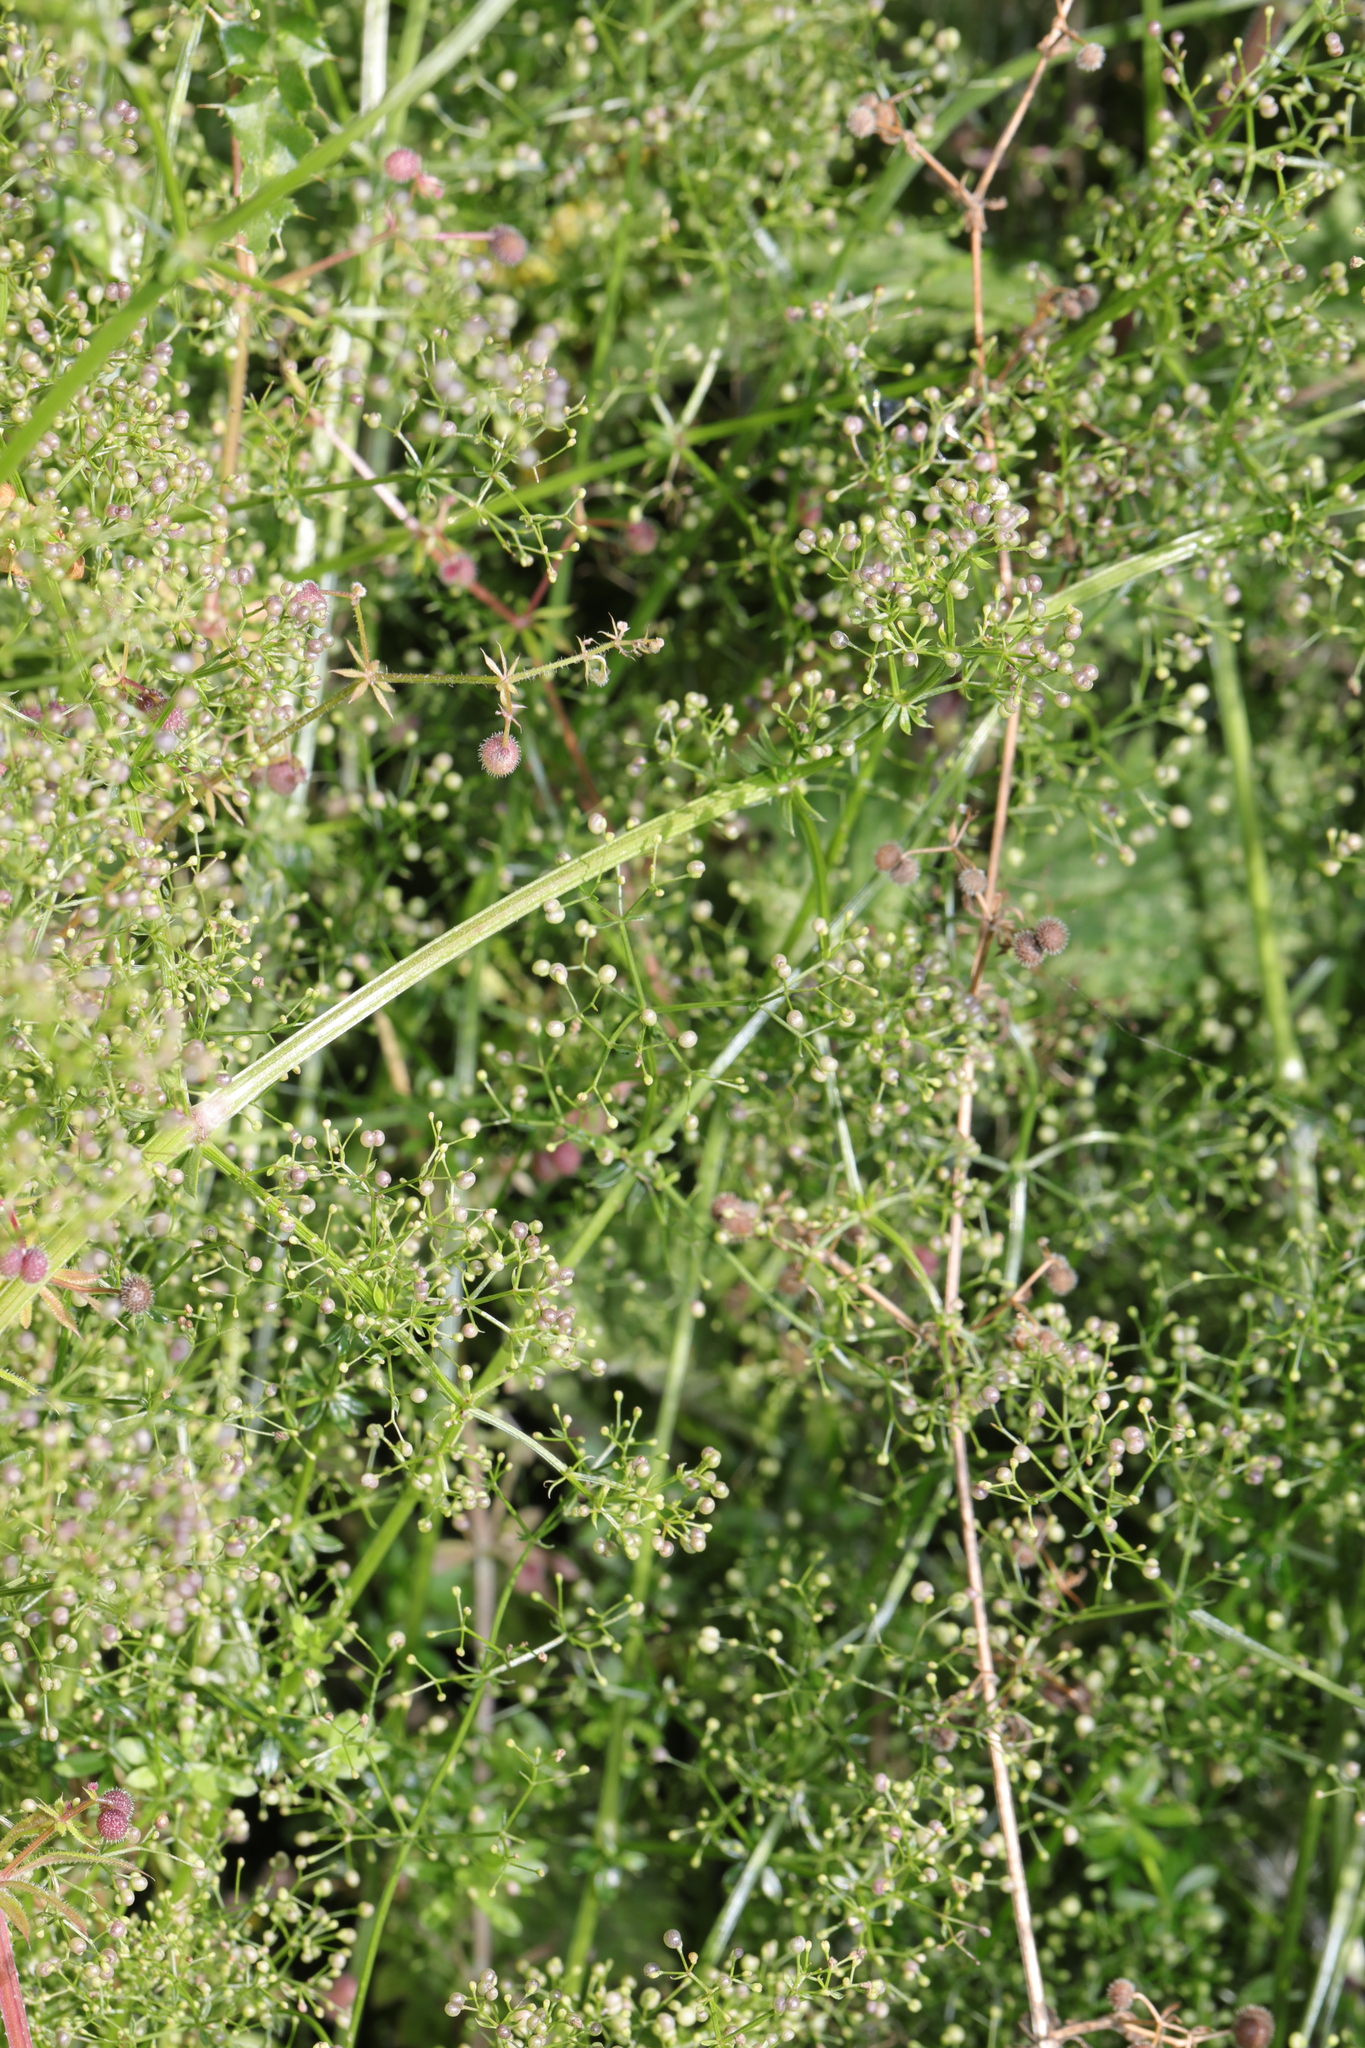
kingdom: Plantae
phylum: Tracheophyta
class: Magnoliopsida
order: Gentianales
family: Rubiaceae
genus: Galium
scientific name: Galium mollugo
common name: Hedge bedstraw
